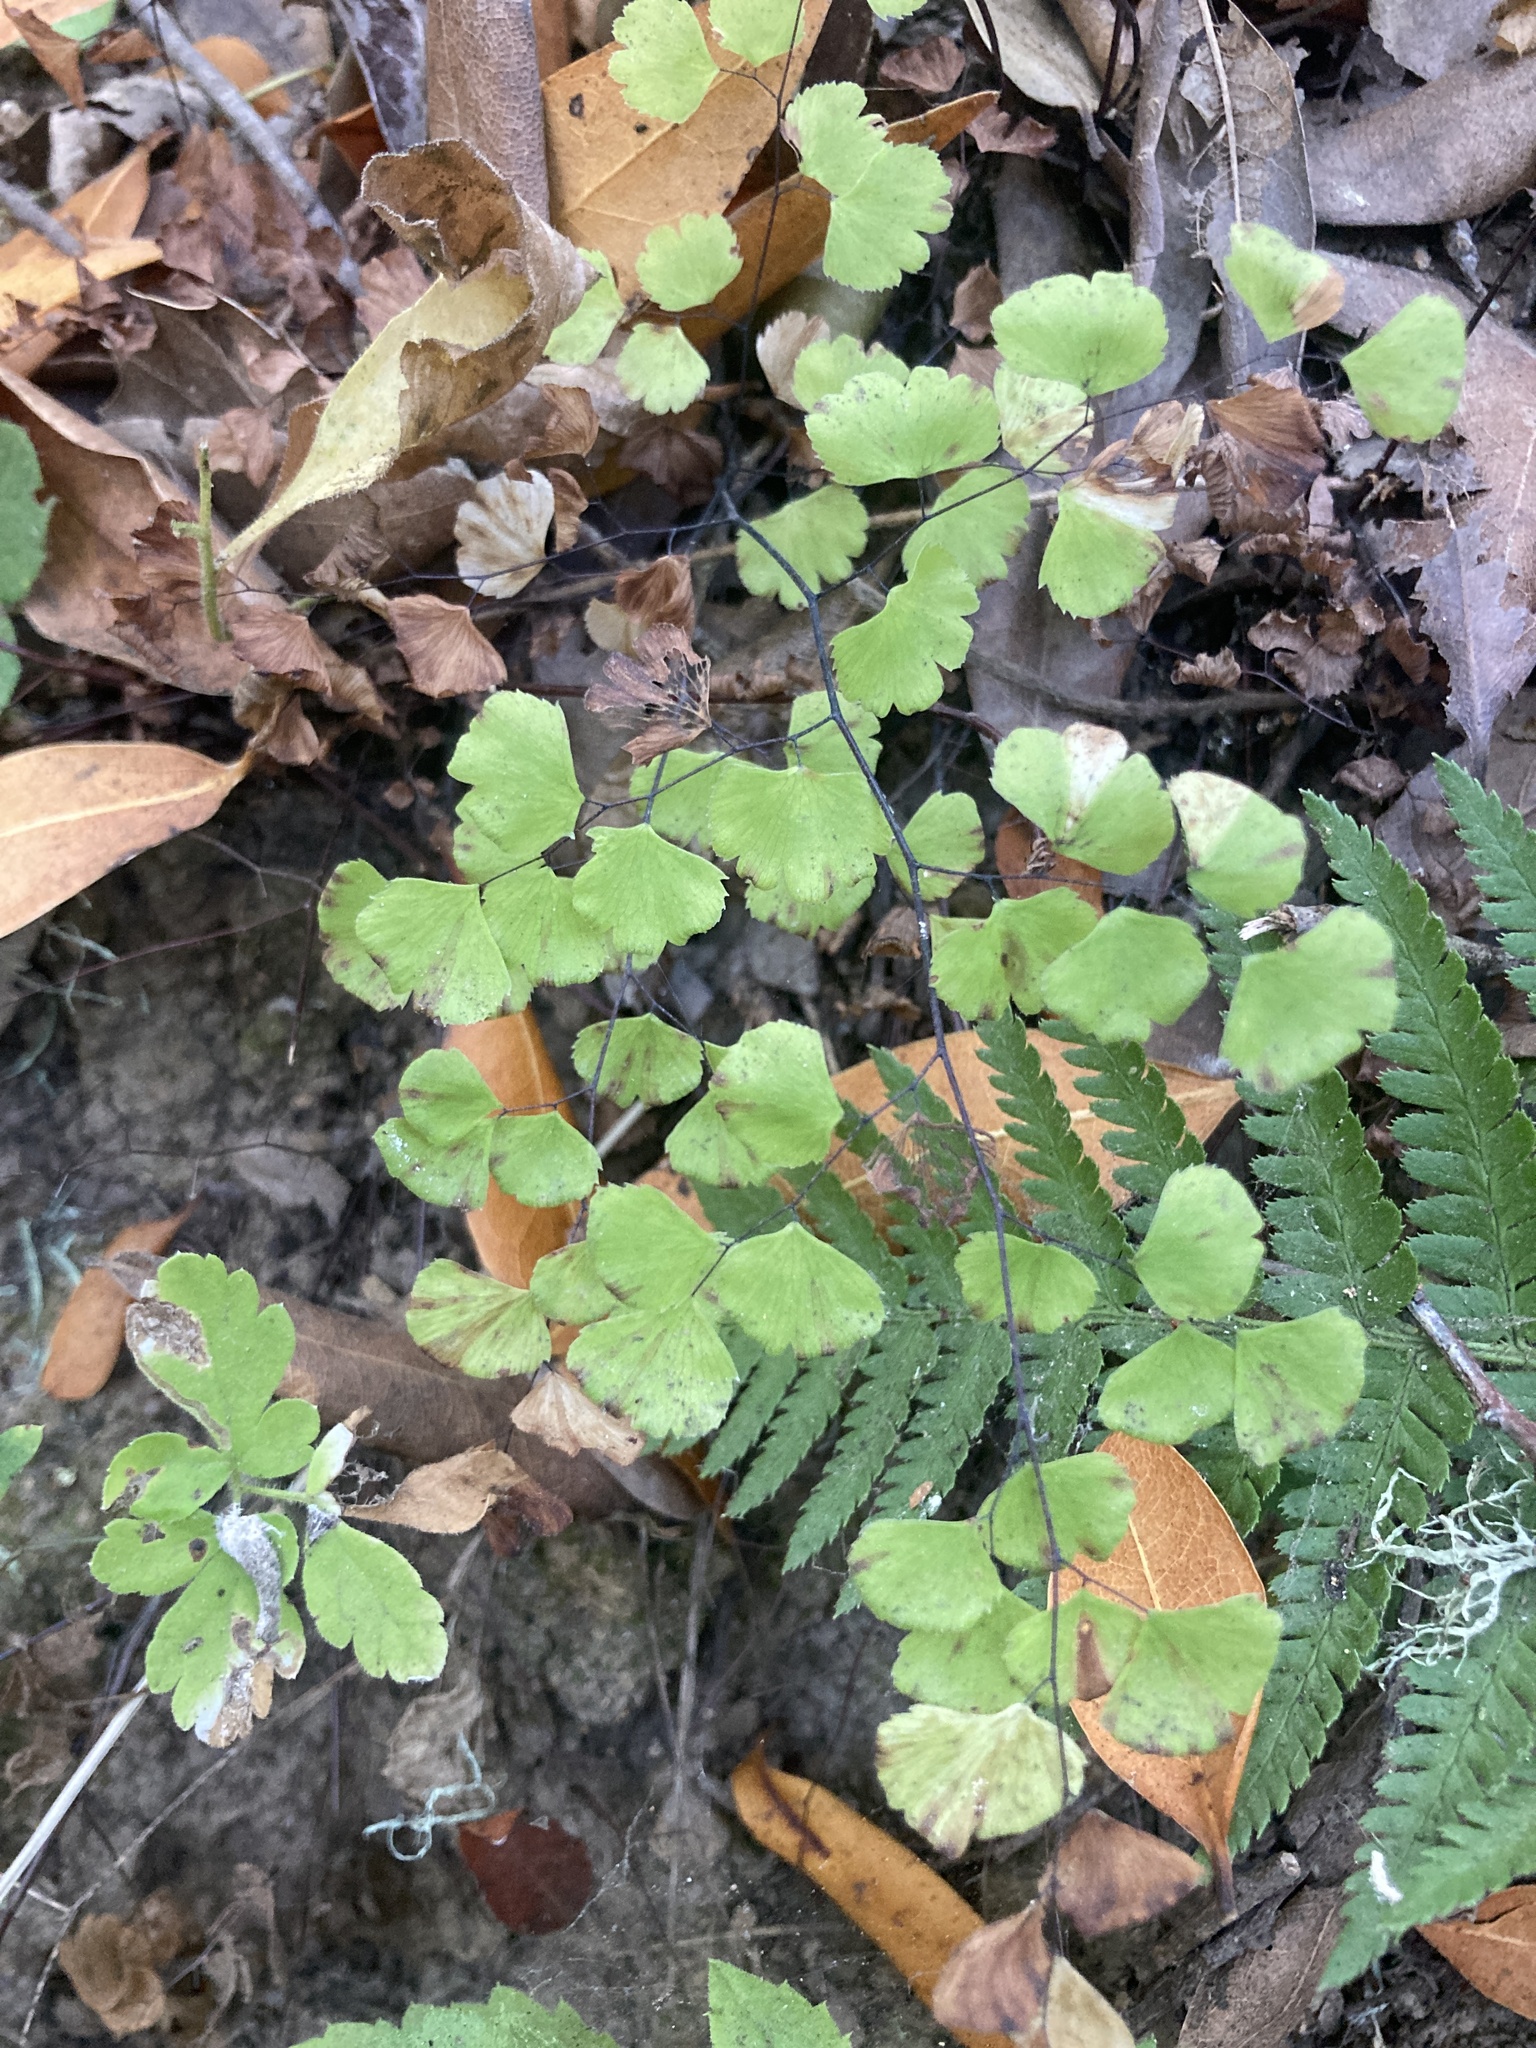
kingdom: Plantae
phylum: Tracheophyta
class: Polypodiopsida
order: Polypodiales
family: Pteridaceae
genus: Adiantum
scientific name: Adiantum jordanii
